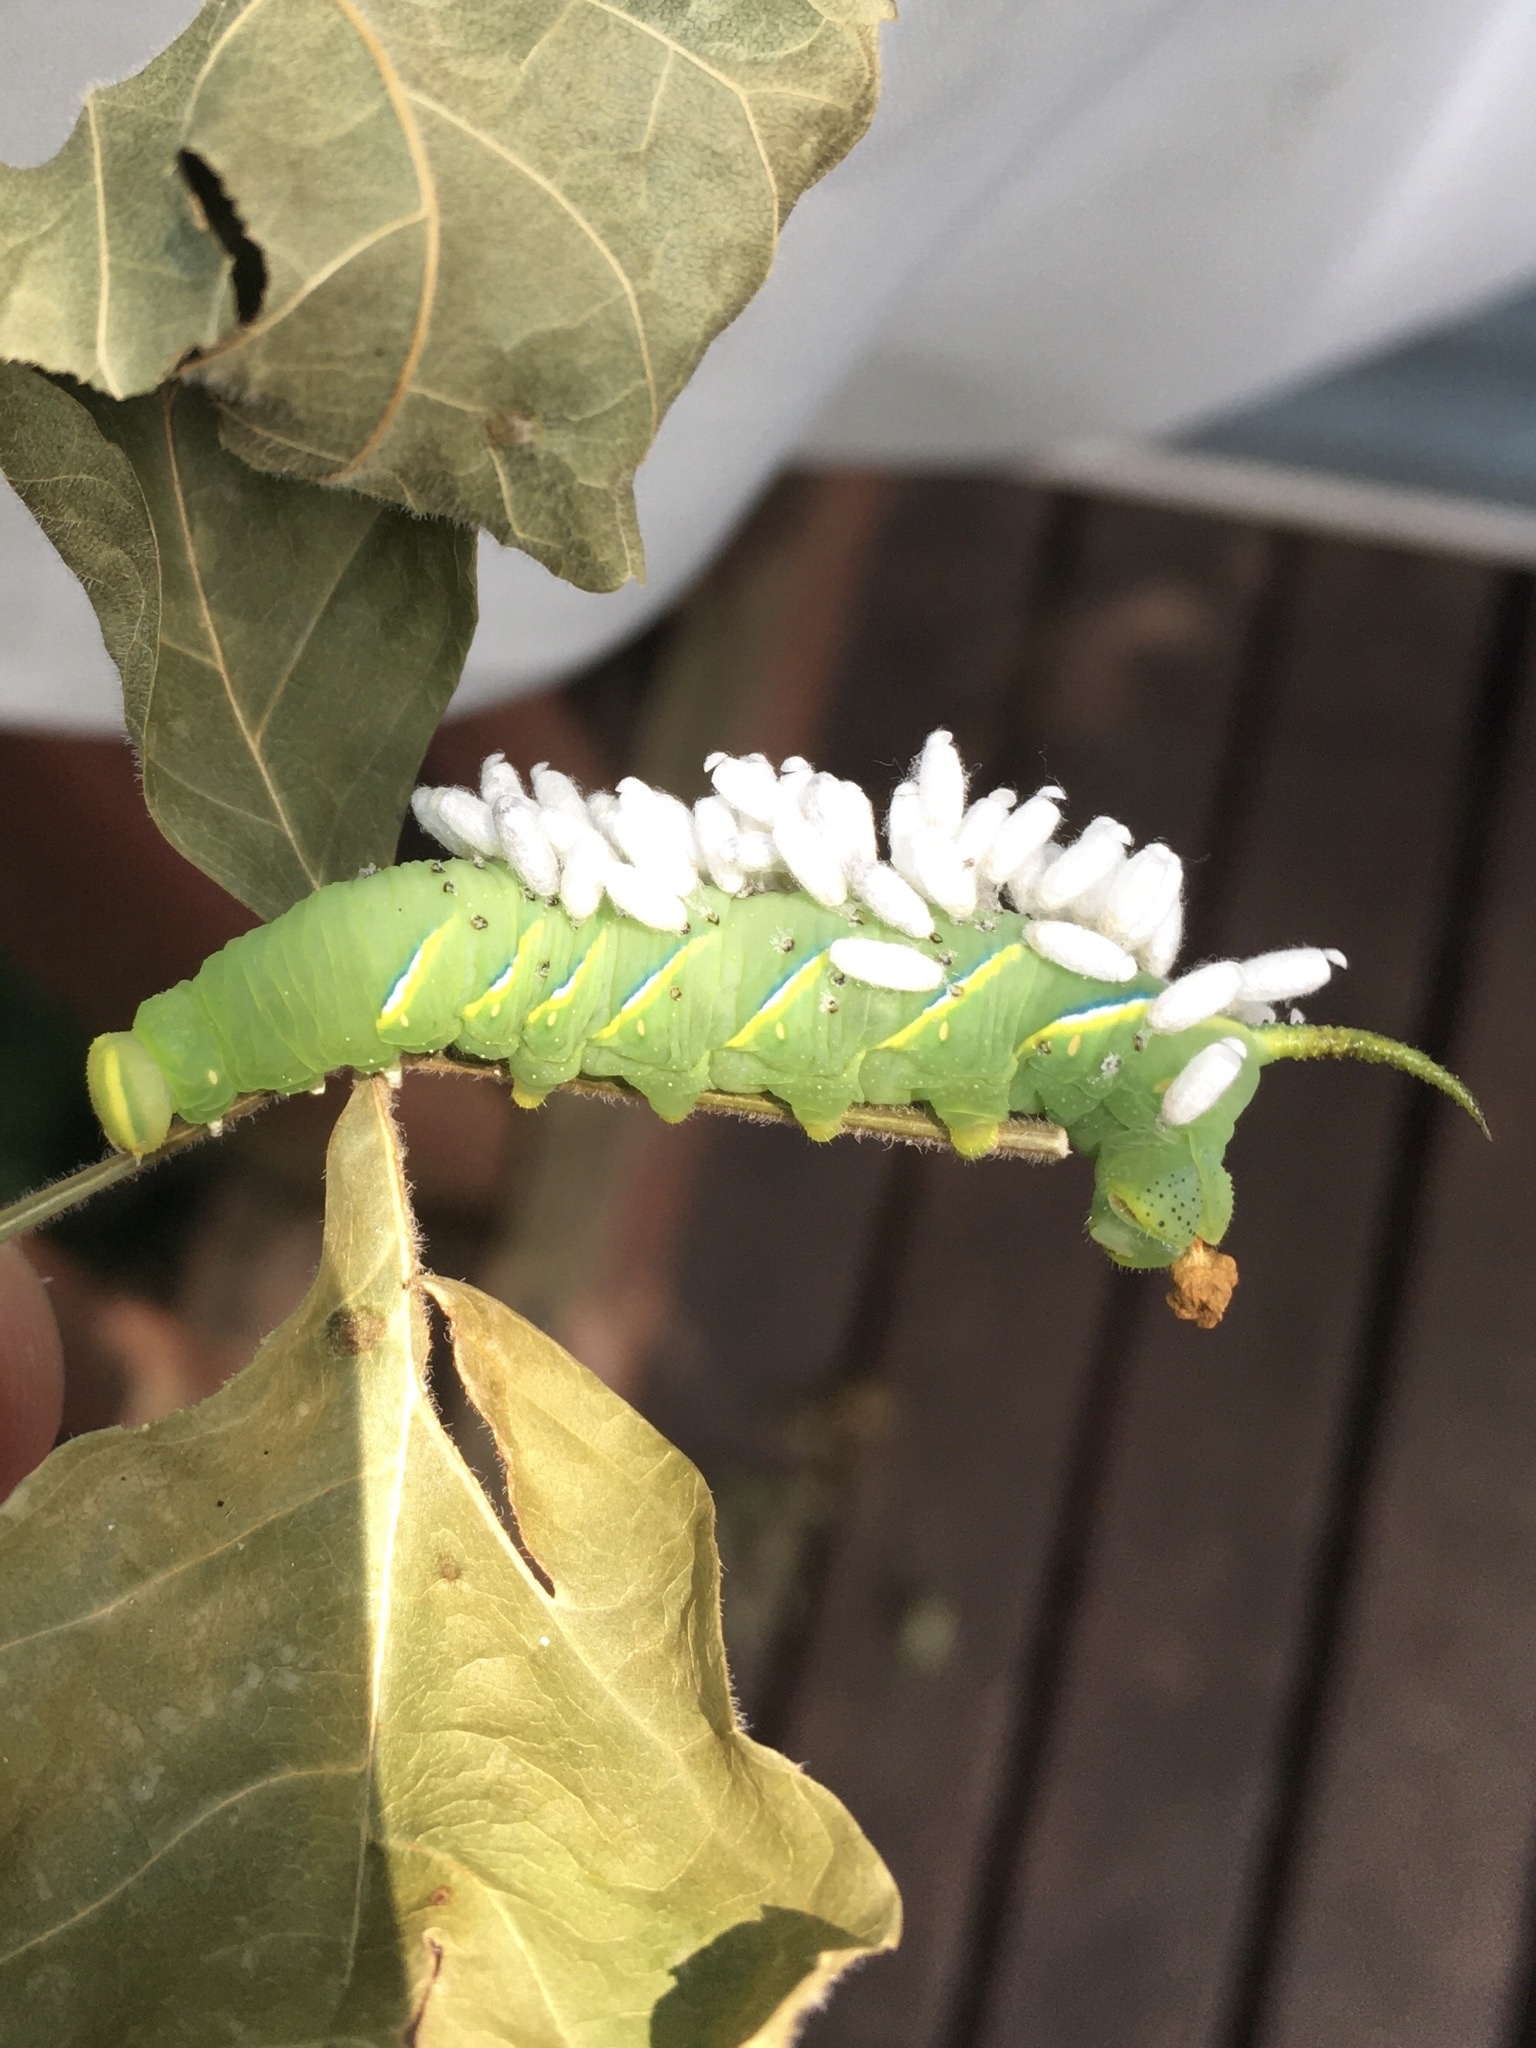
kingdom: Animalia
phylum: Arthropoda
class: Insecta
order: Lepidoptera
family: Sphingidae
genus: Sphinx
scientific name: Sphinx kalmiae
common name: Laurel sphinx
